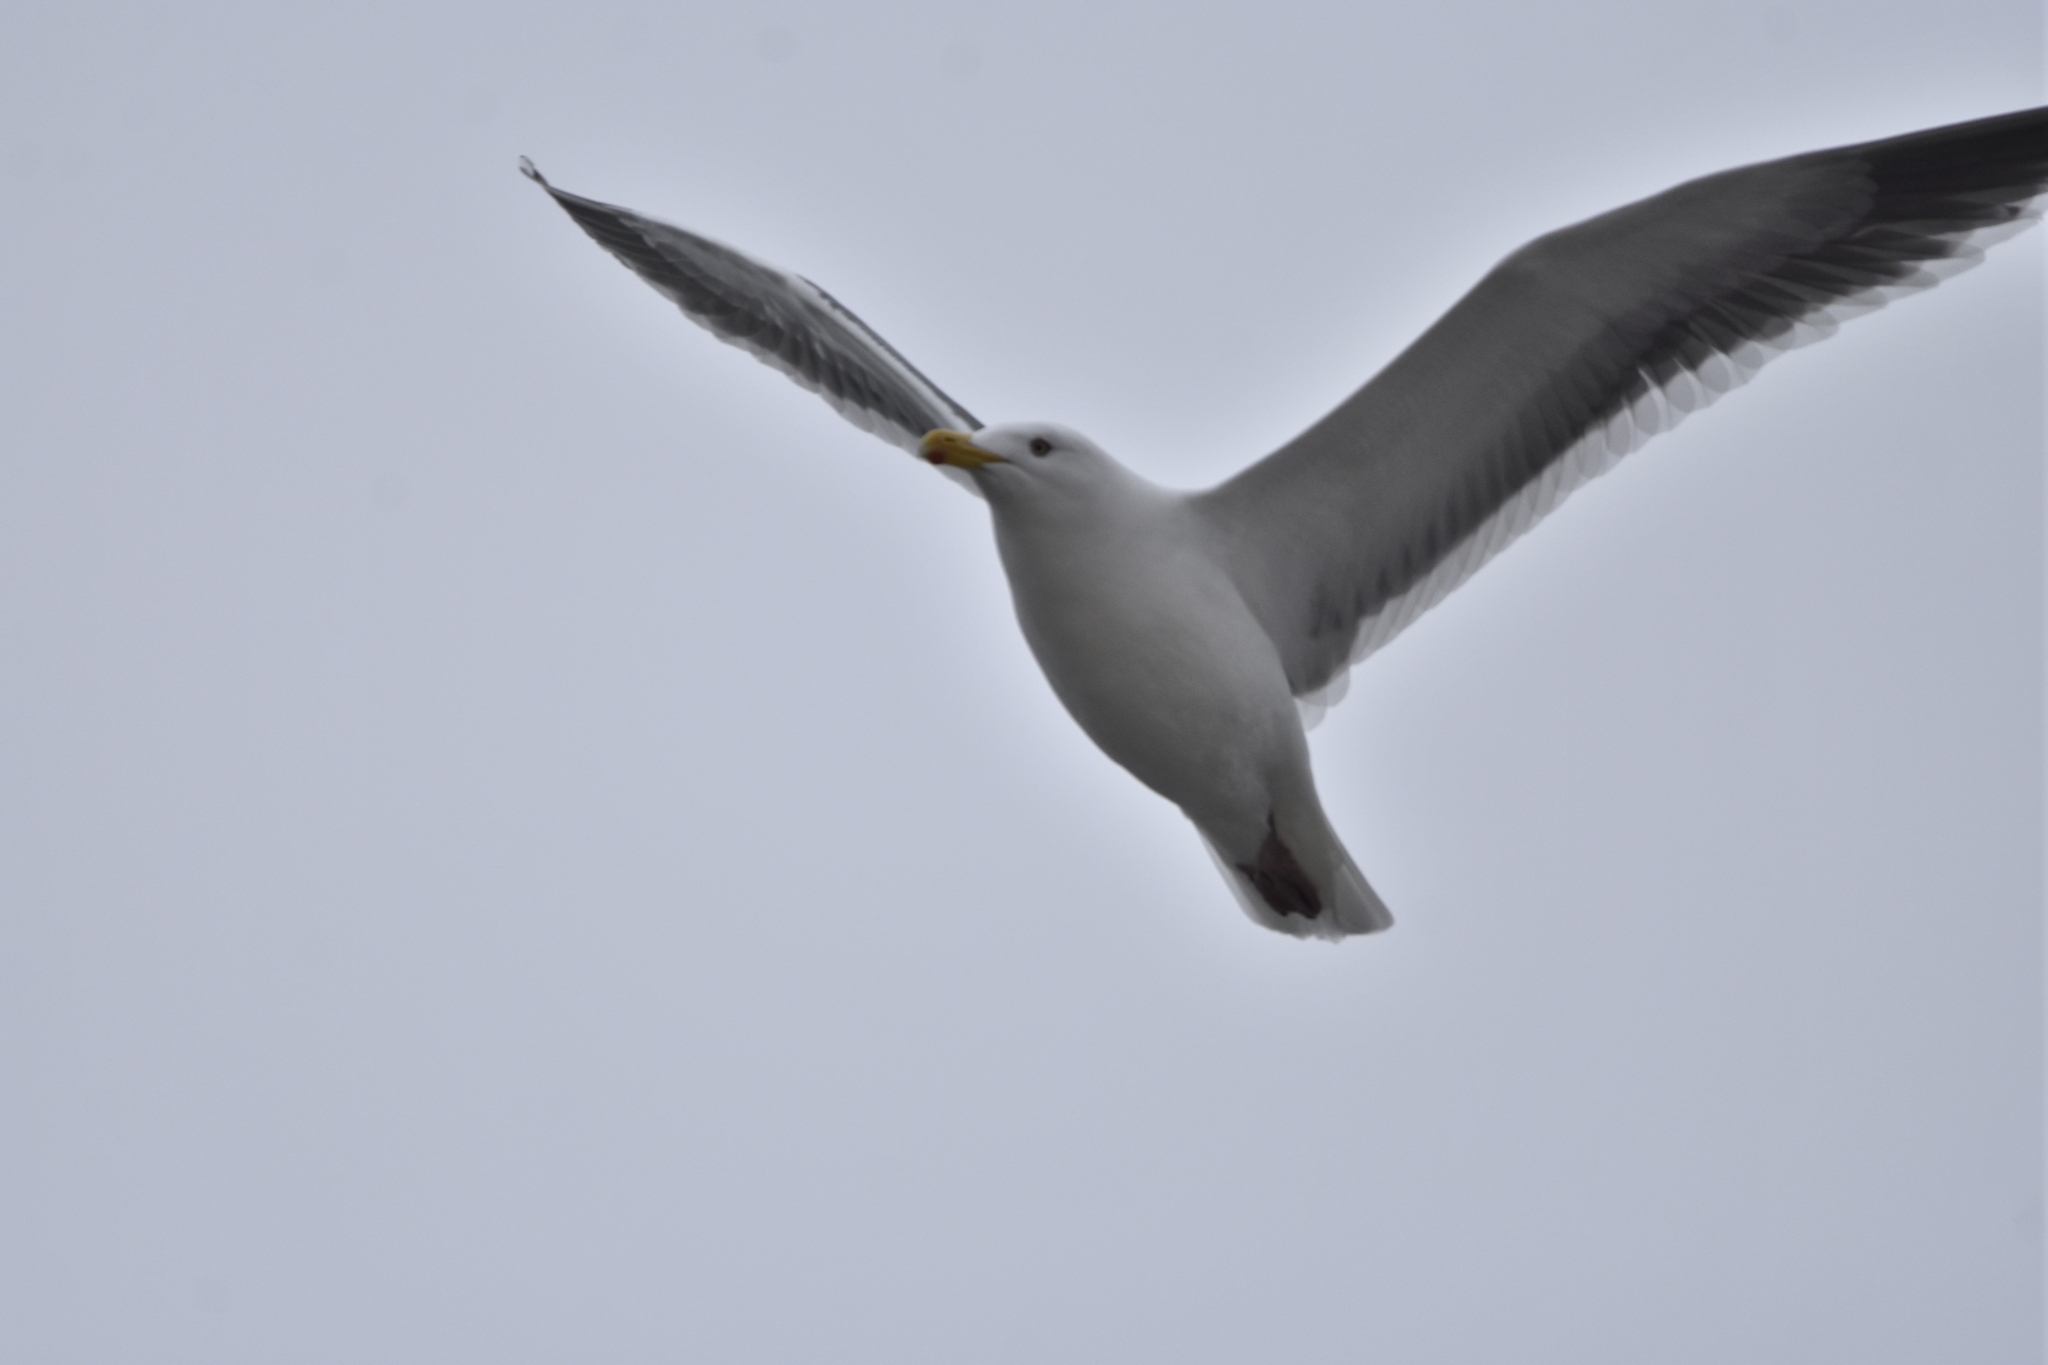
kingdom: Animalia
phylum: Chordata
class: Aves
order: Charadriiformes
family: Laridae
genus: Larus
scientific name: Larus schistisagus
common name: Slaty-backed gull
